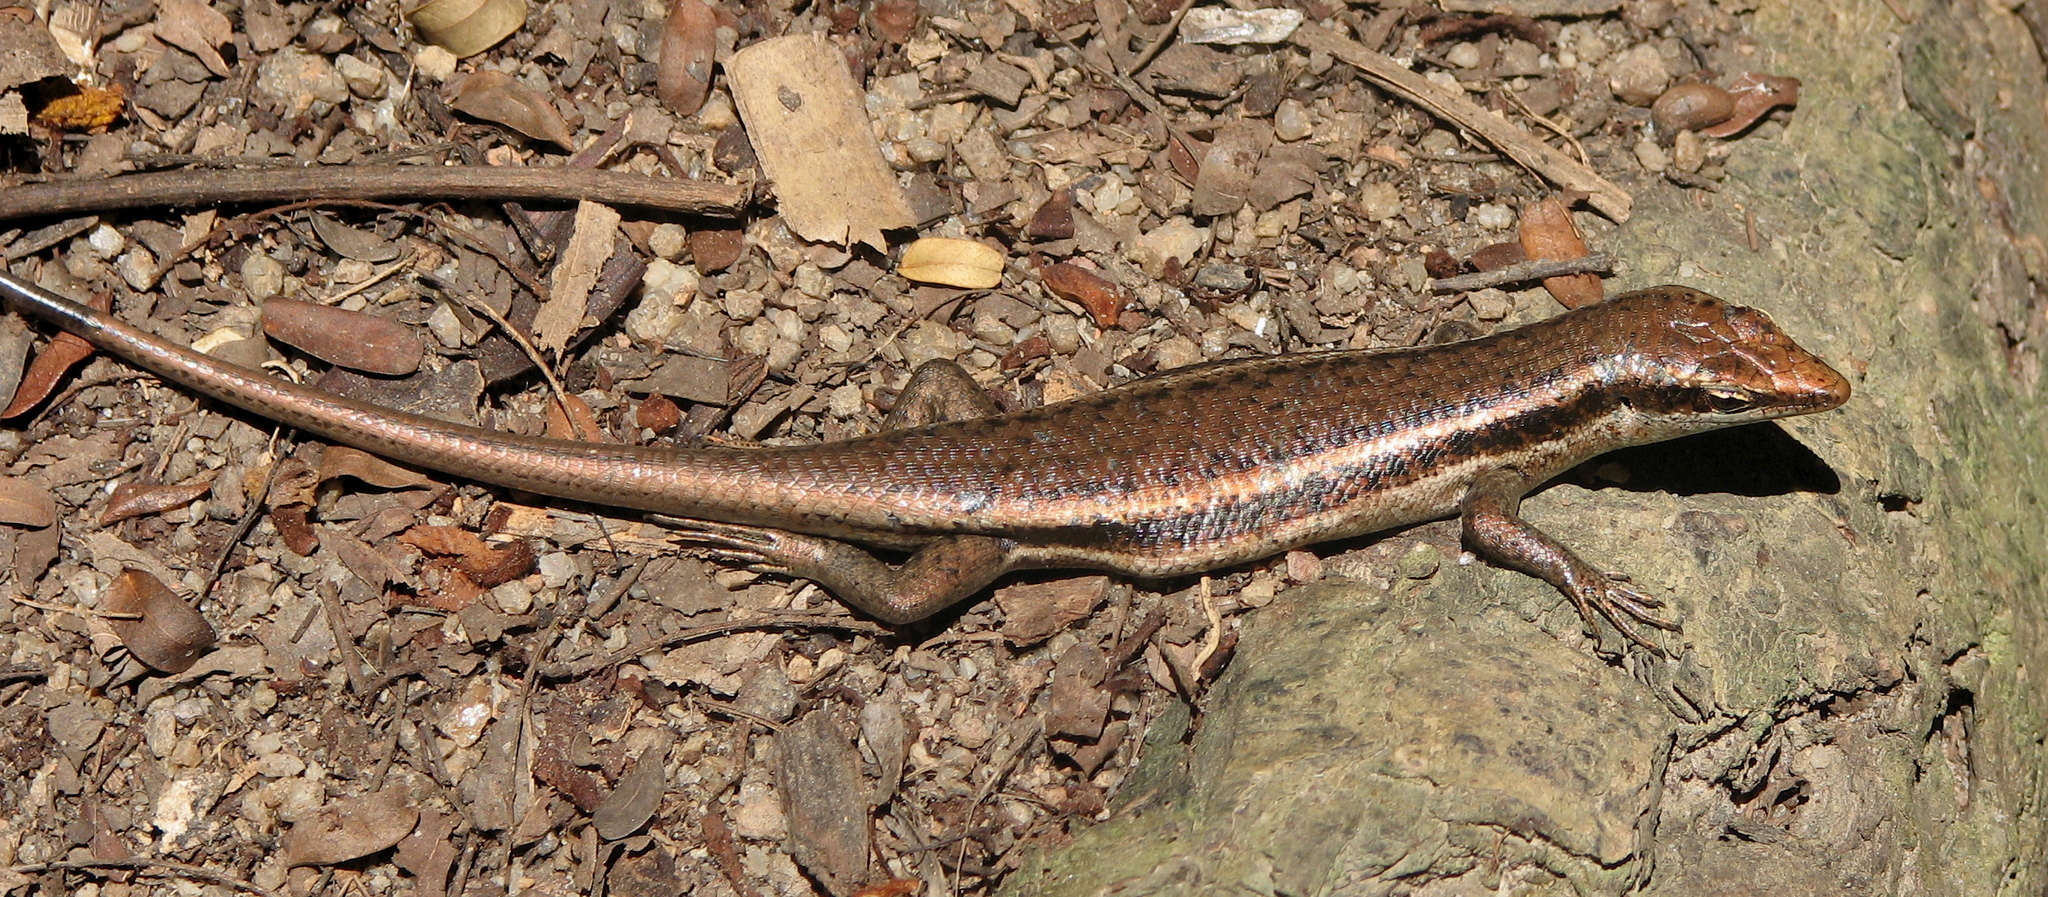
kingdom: Animalia
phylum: Chordata
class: Squamata
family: Scincidae
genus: Trachylepis
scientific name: Trachylepis sechellensis
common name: Seychelles skink
